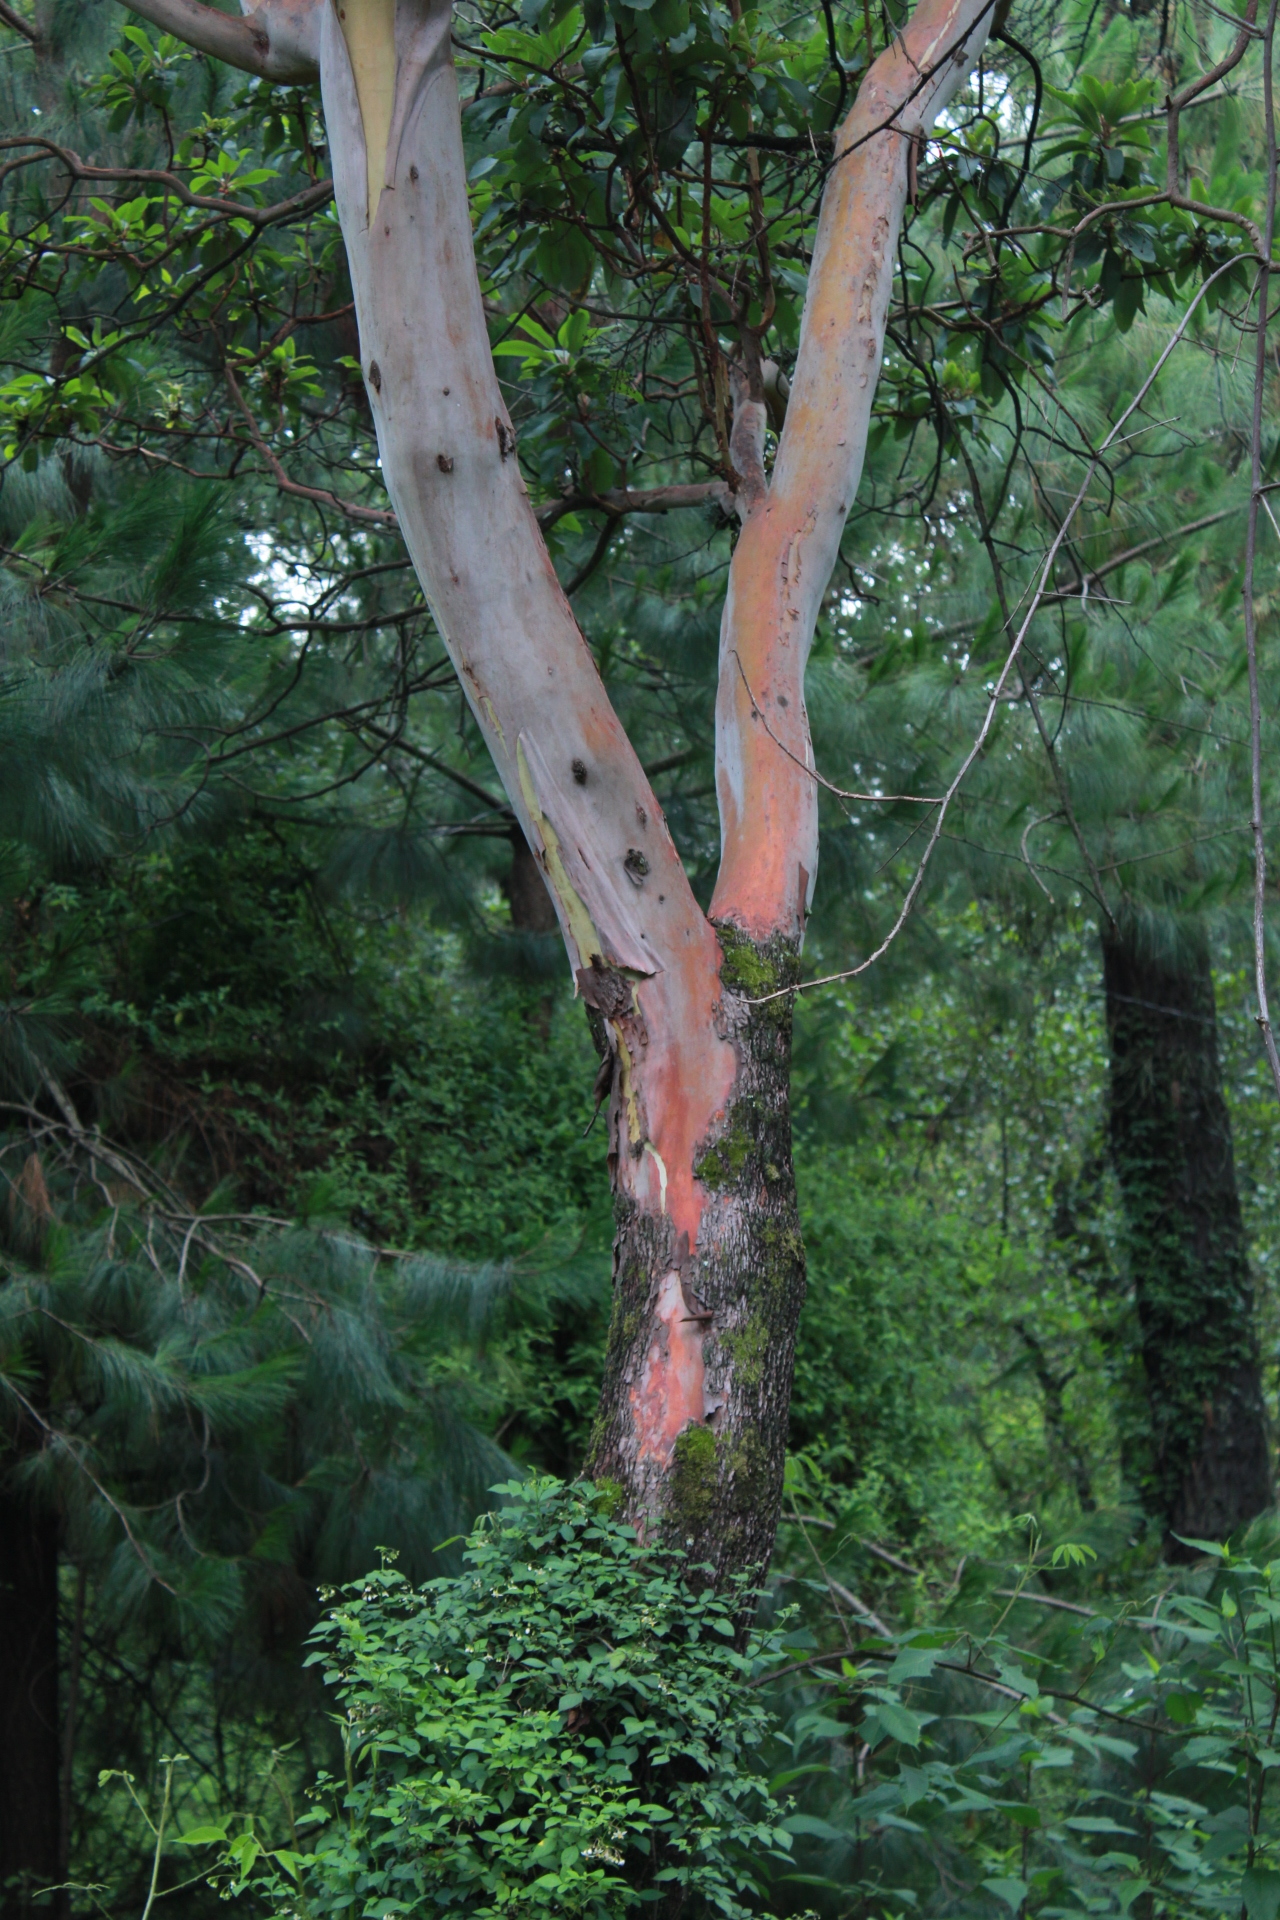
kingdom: Plantae
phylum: Tracheophyta
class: Magnoliopsida
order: Ericales
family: Ericaceae
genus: Arbutus
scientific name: Arbutus xalapensis
